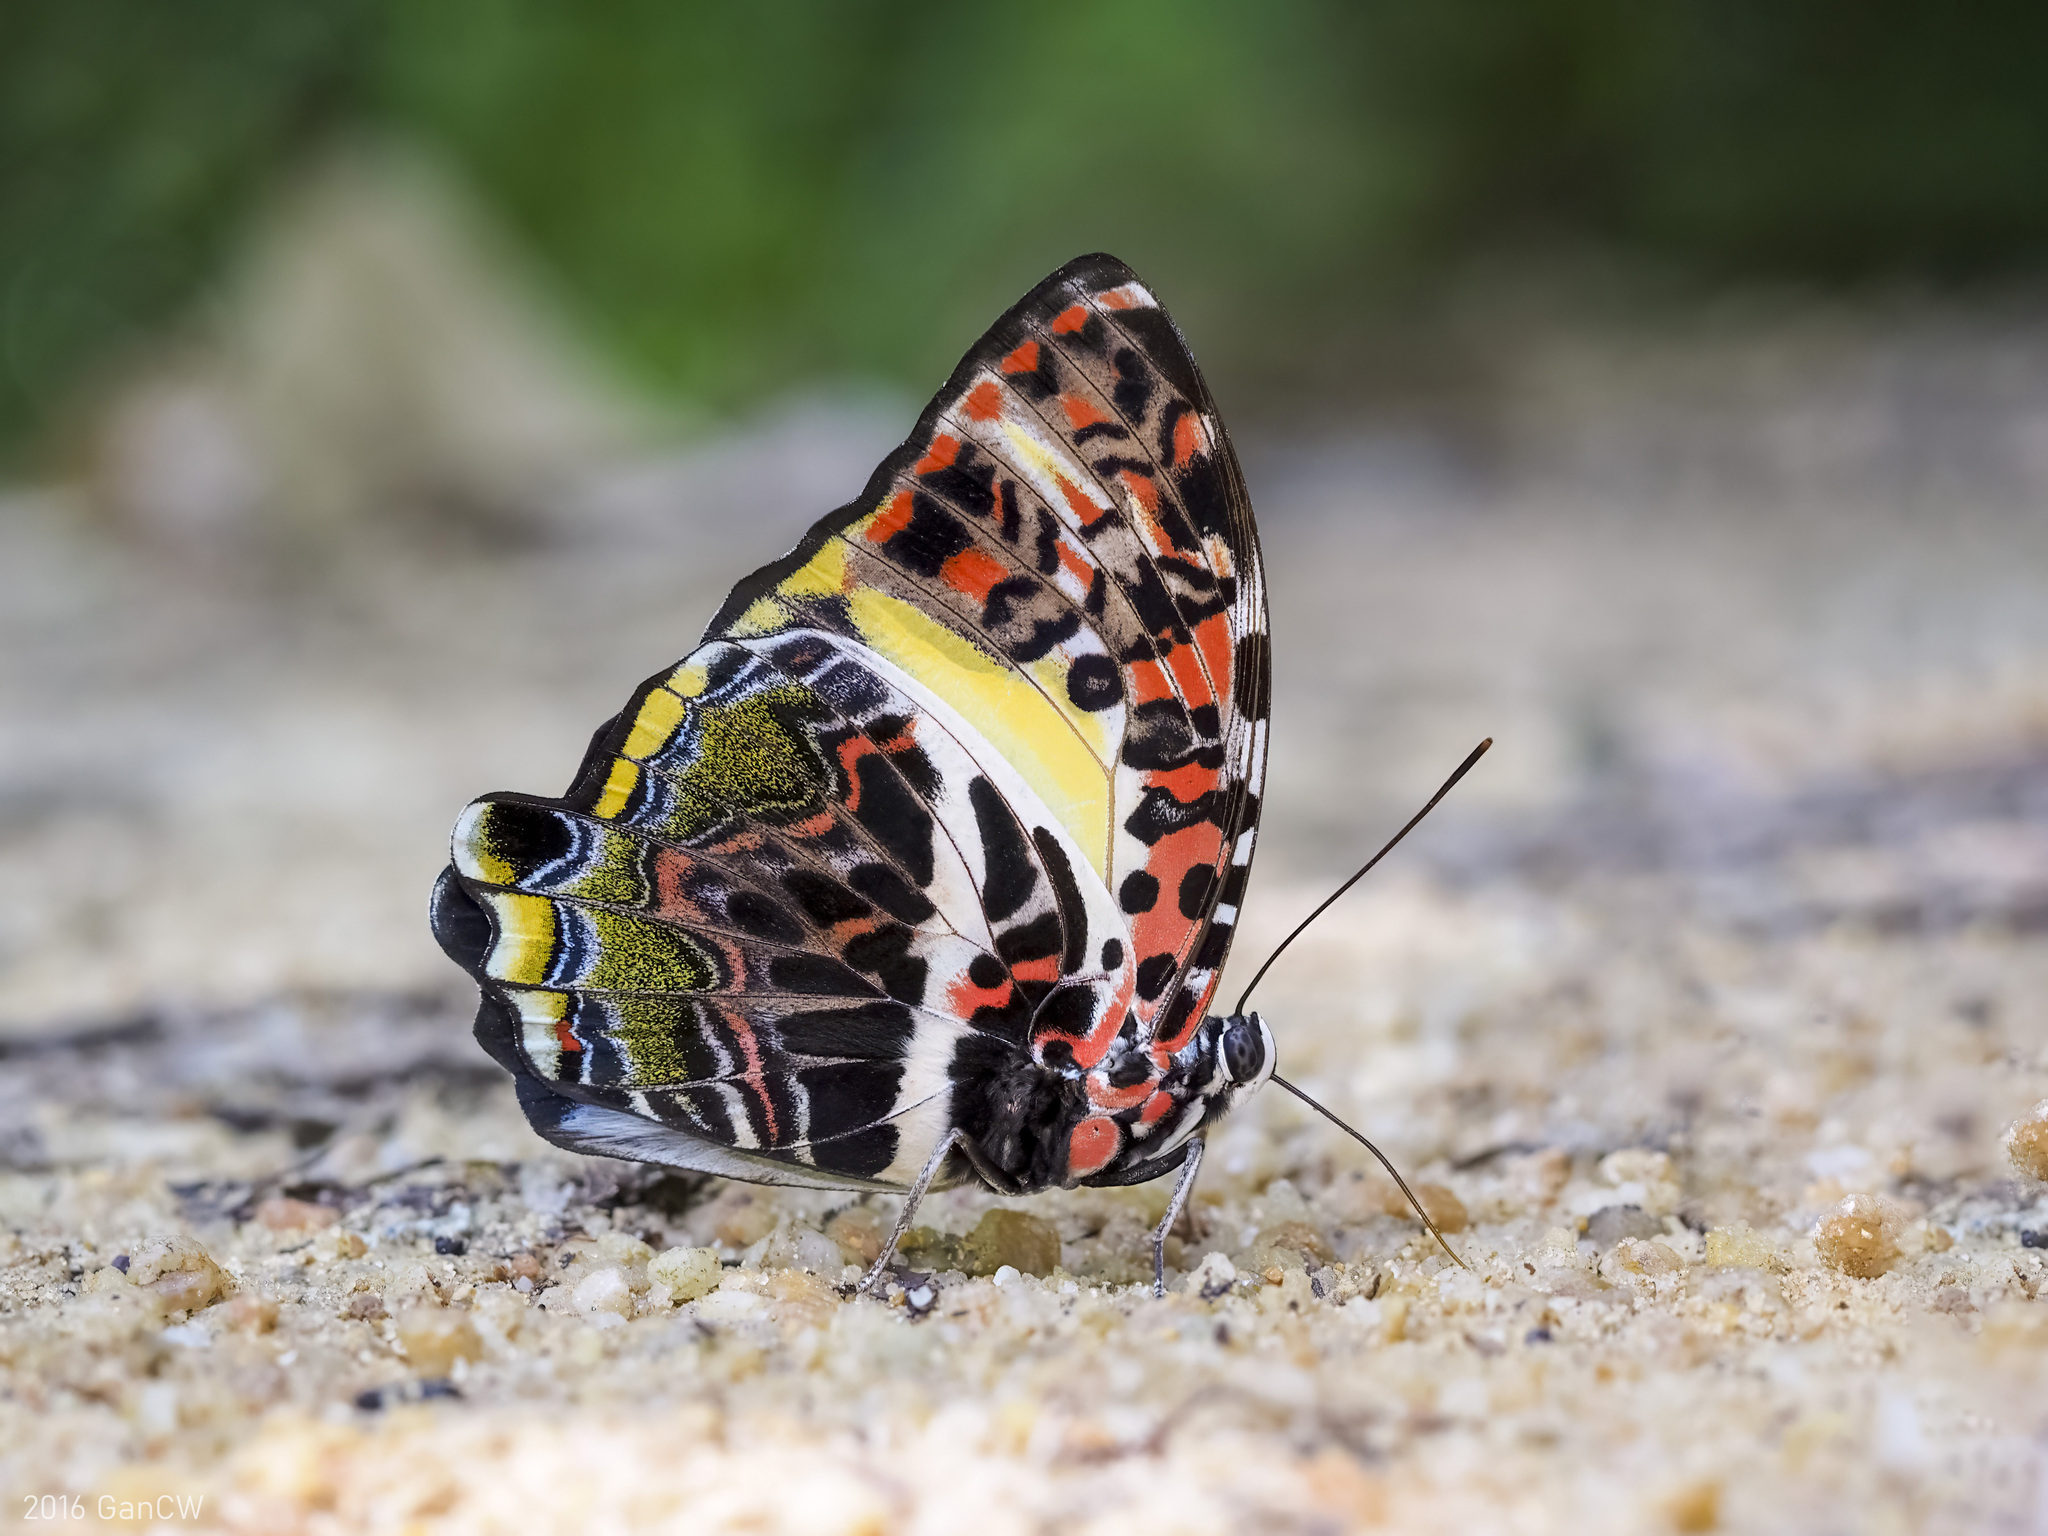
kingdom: Animalia
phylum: Arthropoda
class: Insecta
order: Lepidoptera
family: Nymphalidae
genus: Prothoe
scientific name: Prothoe Agatasa calydonia
